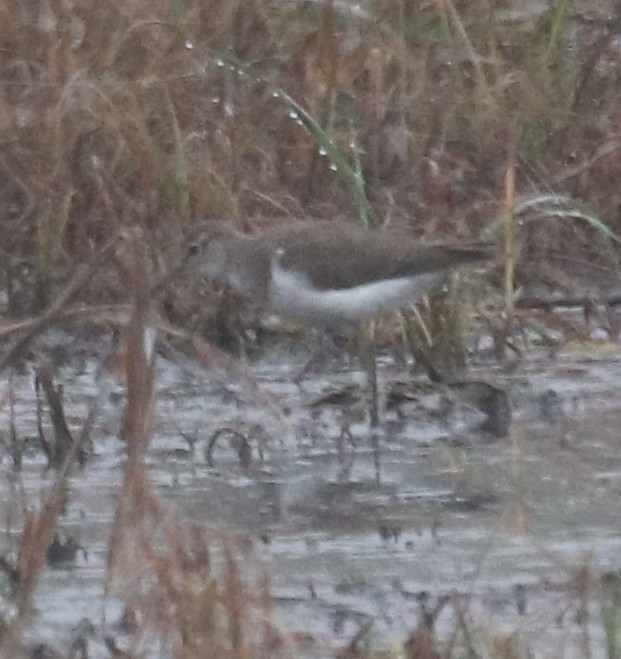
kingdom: Animalia
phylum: Chordata
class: Aves
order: Charadriiformes
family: Scolopacidae
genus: Actitis
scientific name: Actitis hypoleucos
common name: Common sandpiper
